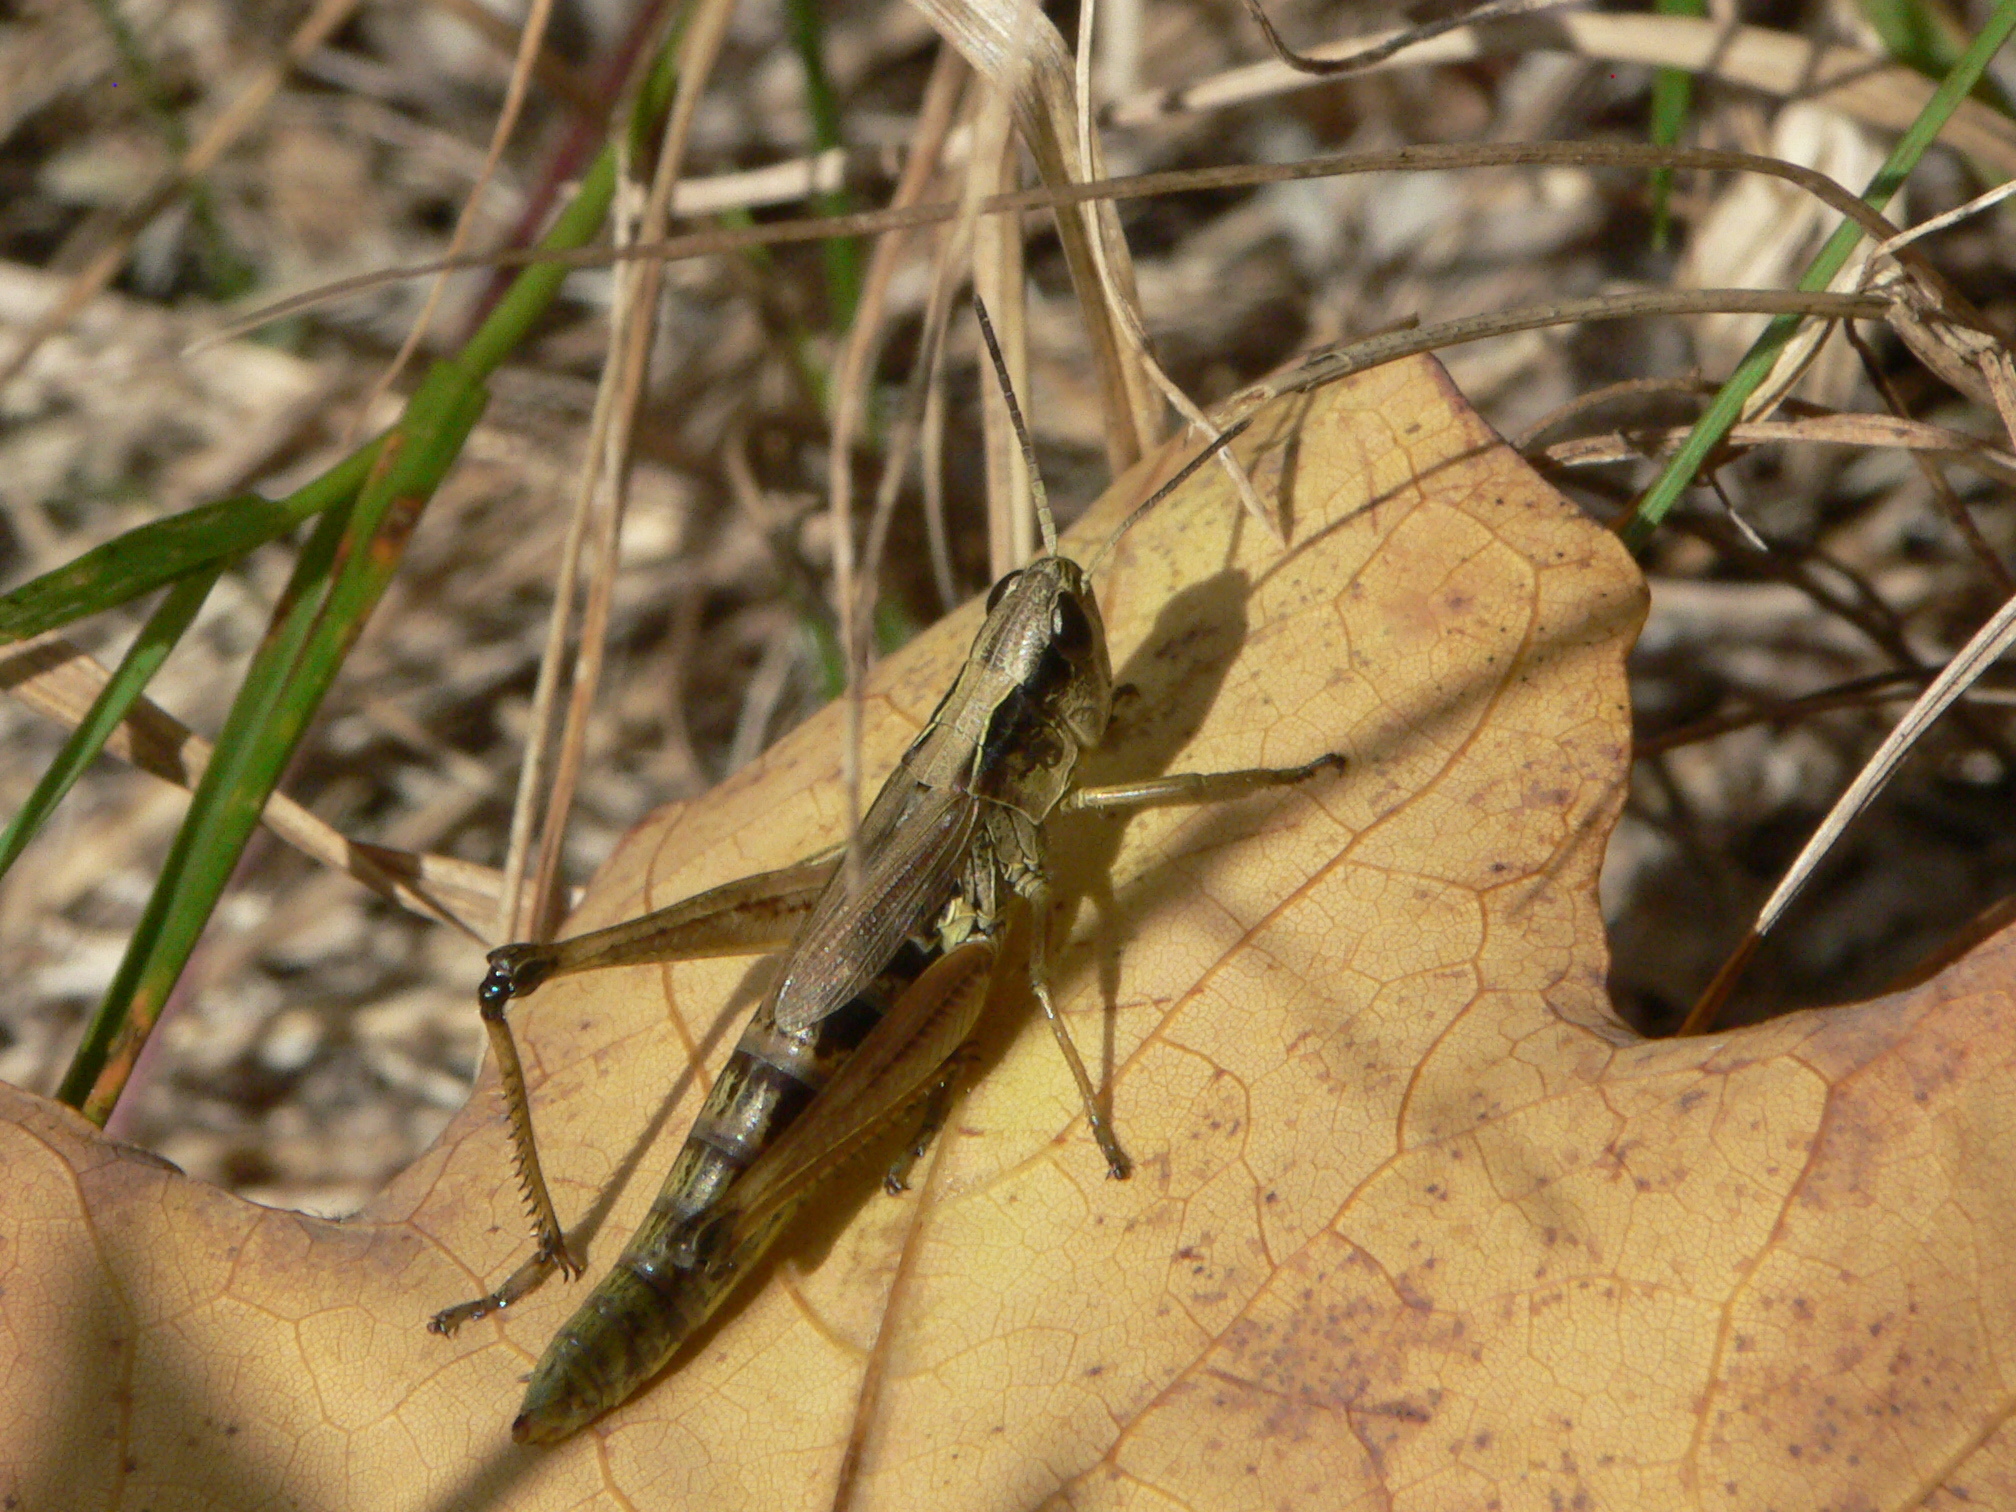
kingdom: Animalia
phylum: Arthropoda
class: Insecta
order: Orthoptera
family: Acrididae
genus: Pseudochorthippus
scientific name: Pseudochorthippus curtipennis
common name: Marsh meadow grasshopper
